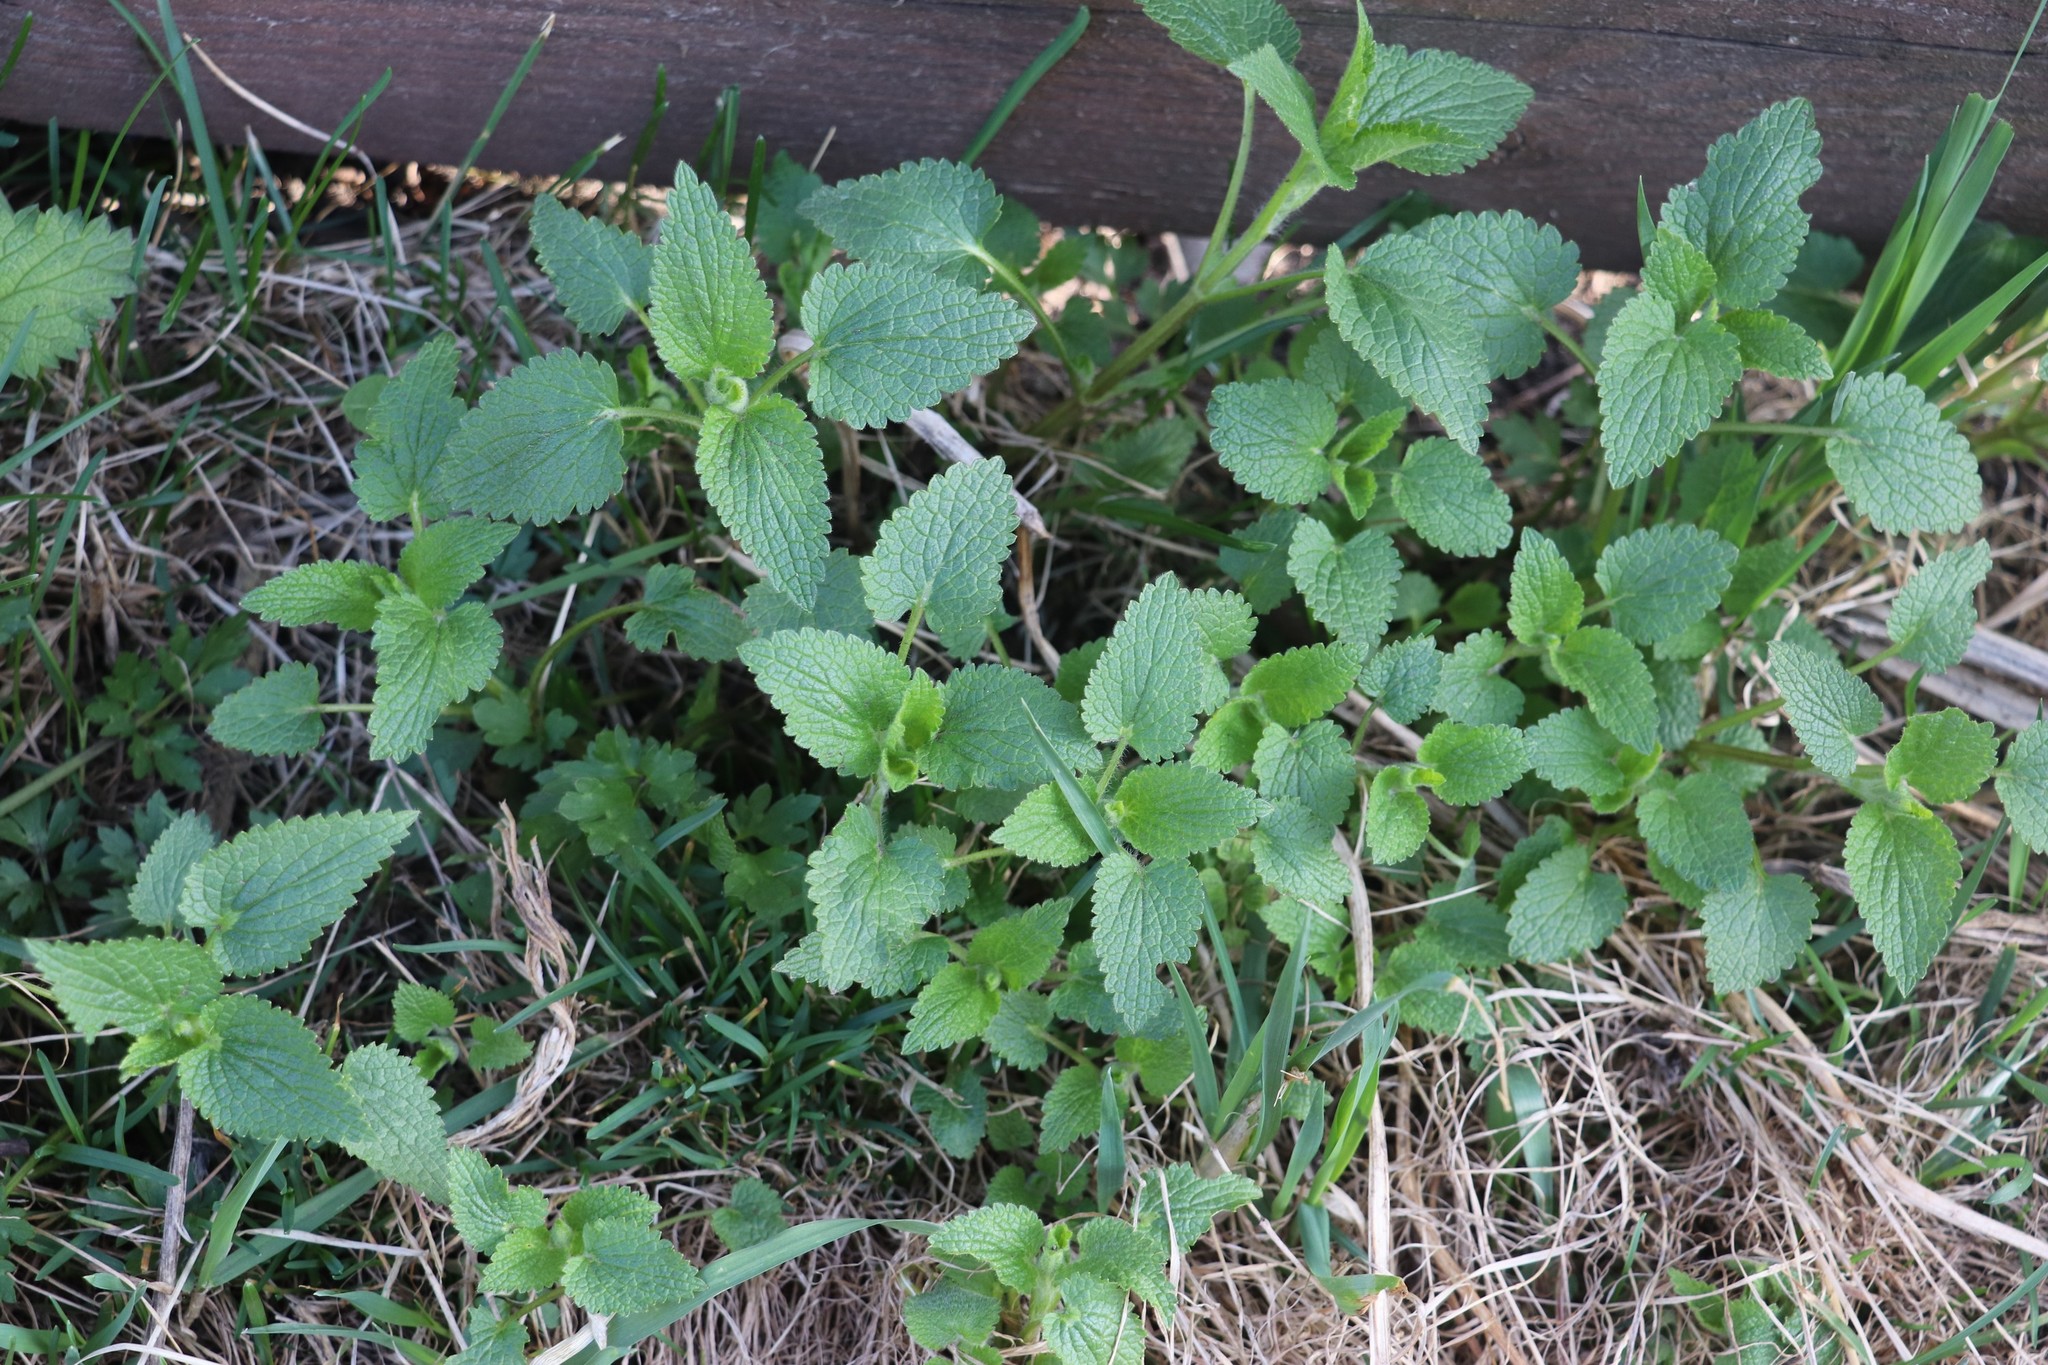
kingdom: Plantae
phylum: Tracheophyta
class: Magnoliopsida
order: Lamiales
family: Lamiaceae
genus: Lamium
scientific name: Lamium album
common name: White dead-nettle
